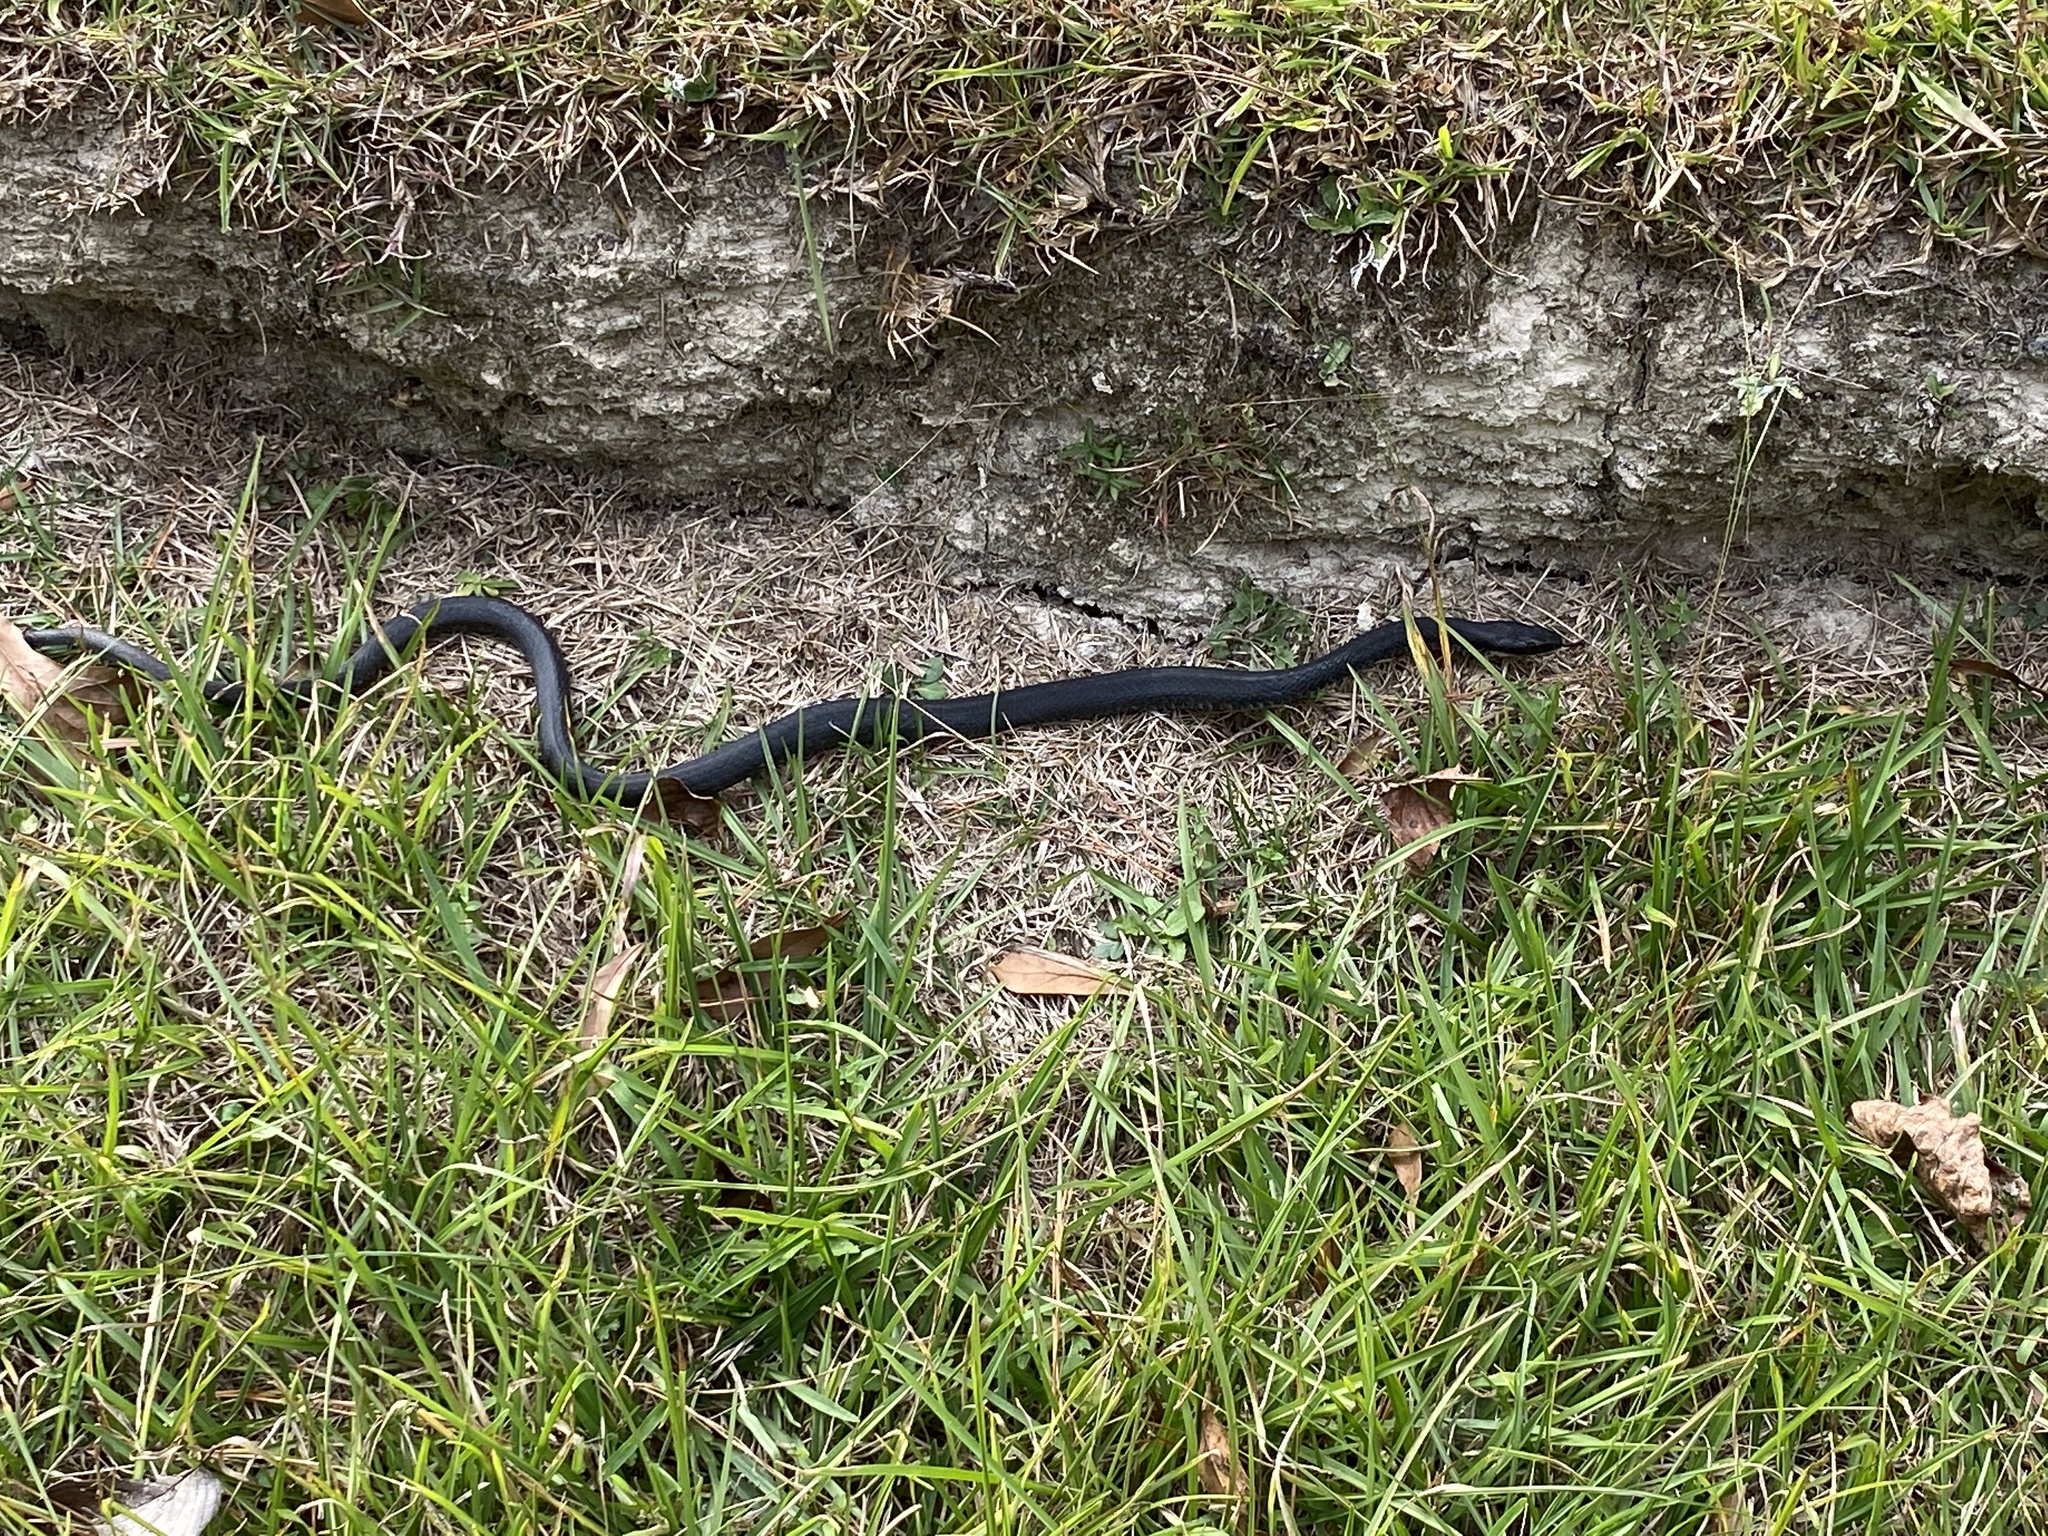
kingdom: Animalia
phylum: Chordata
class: Squamata
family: Colubridae
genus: Coluber
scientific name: Coluber constrictor
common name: Eastern racer
